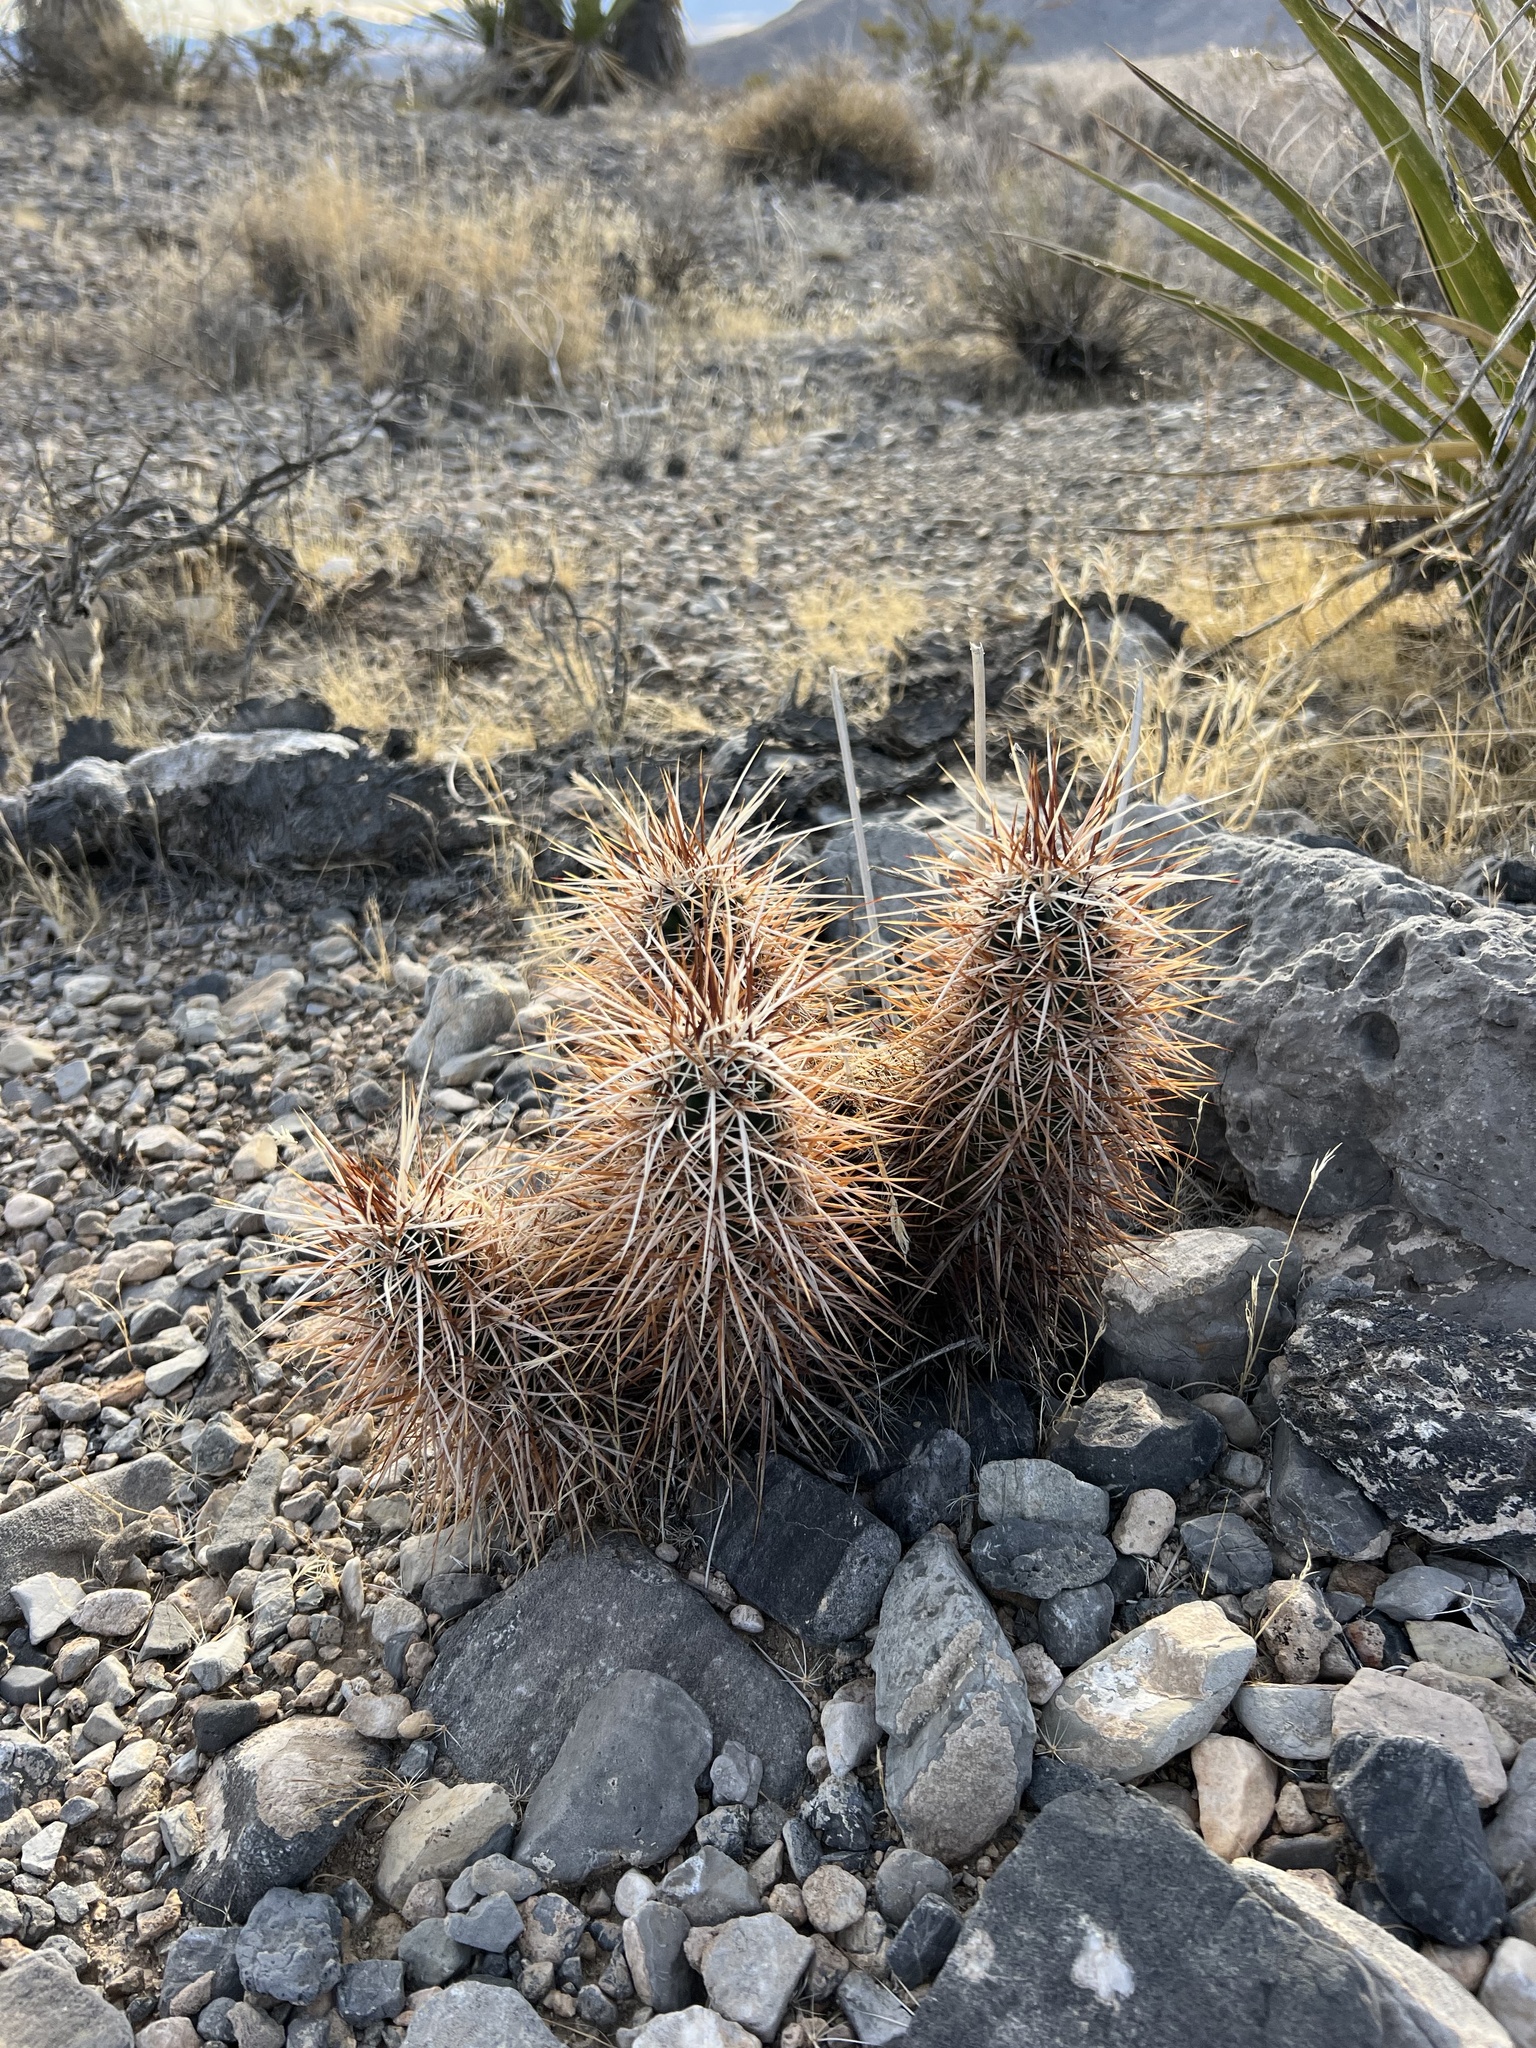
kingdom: Plantae
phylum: Tracheophyta
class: Magnoliopsida
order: Caryophyllales
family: Cactaceae
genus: Echinocereus
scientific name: Echinocereus engelmannii
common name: Engelmann's hedgehog cactus
